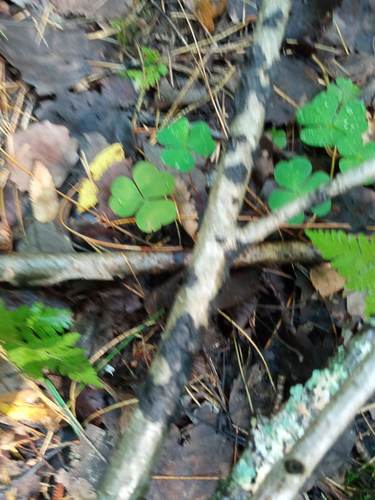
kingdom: Fungi
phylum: Basidiomycota
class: Agaricomycetes
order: Auriculariales
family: Auriculariaceae
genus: Exidia
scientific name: Exidia
